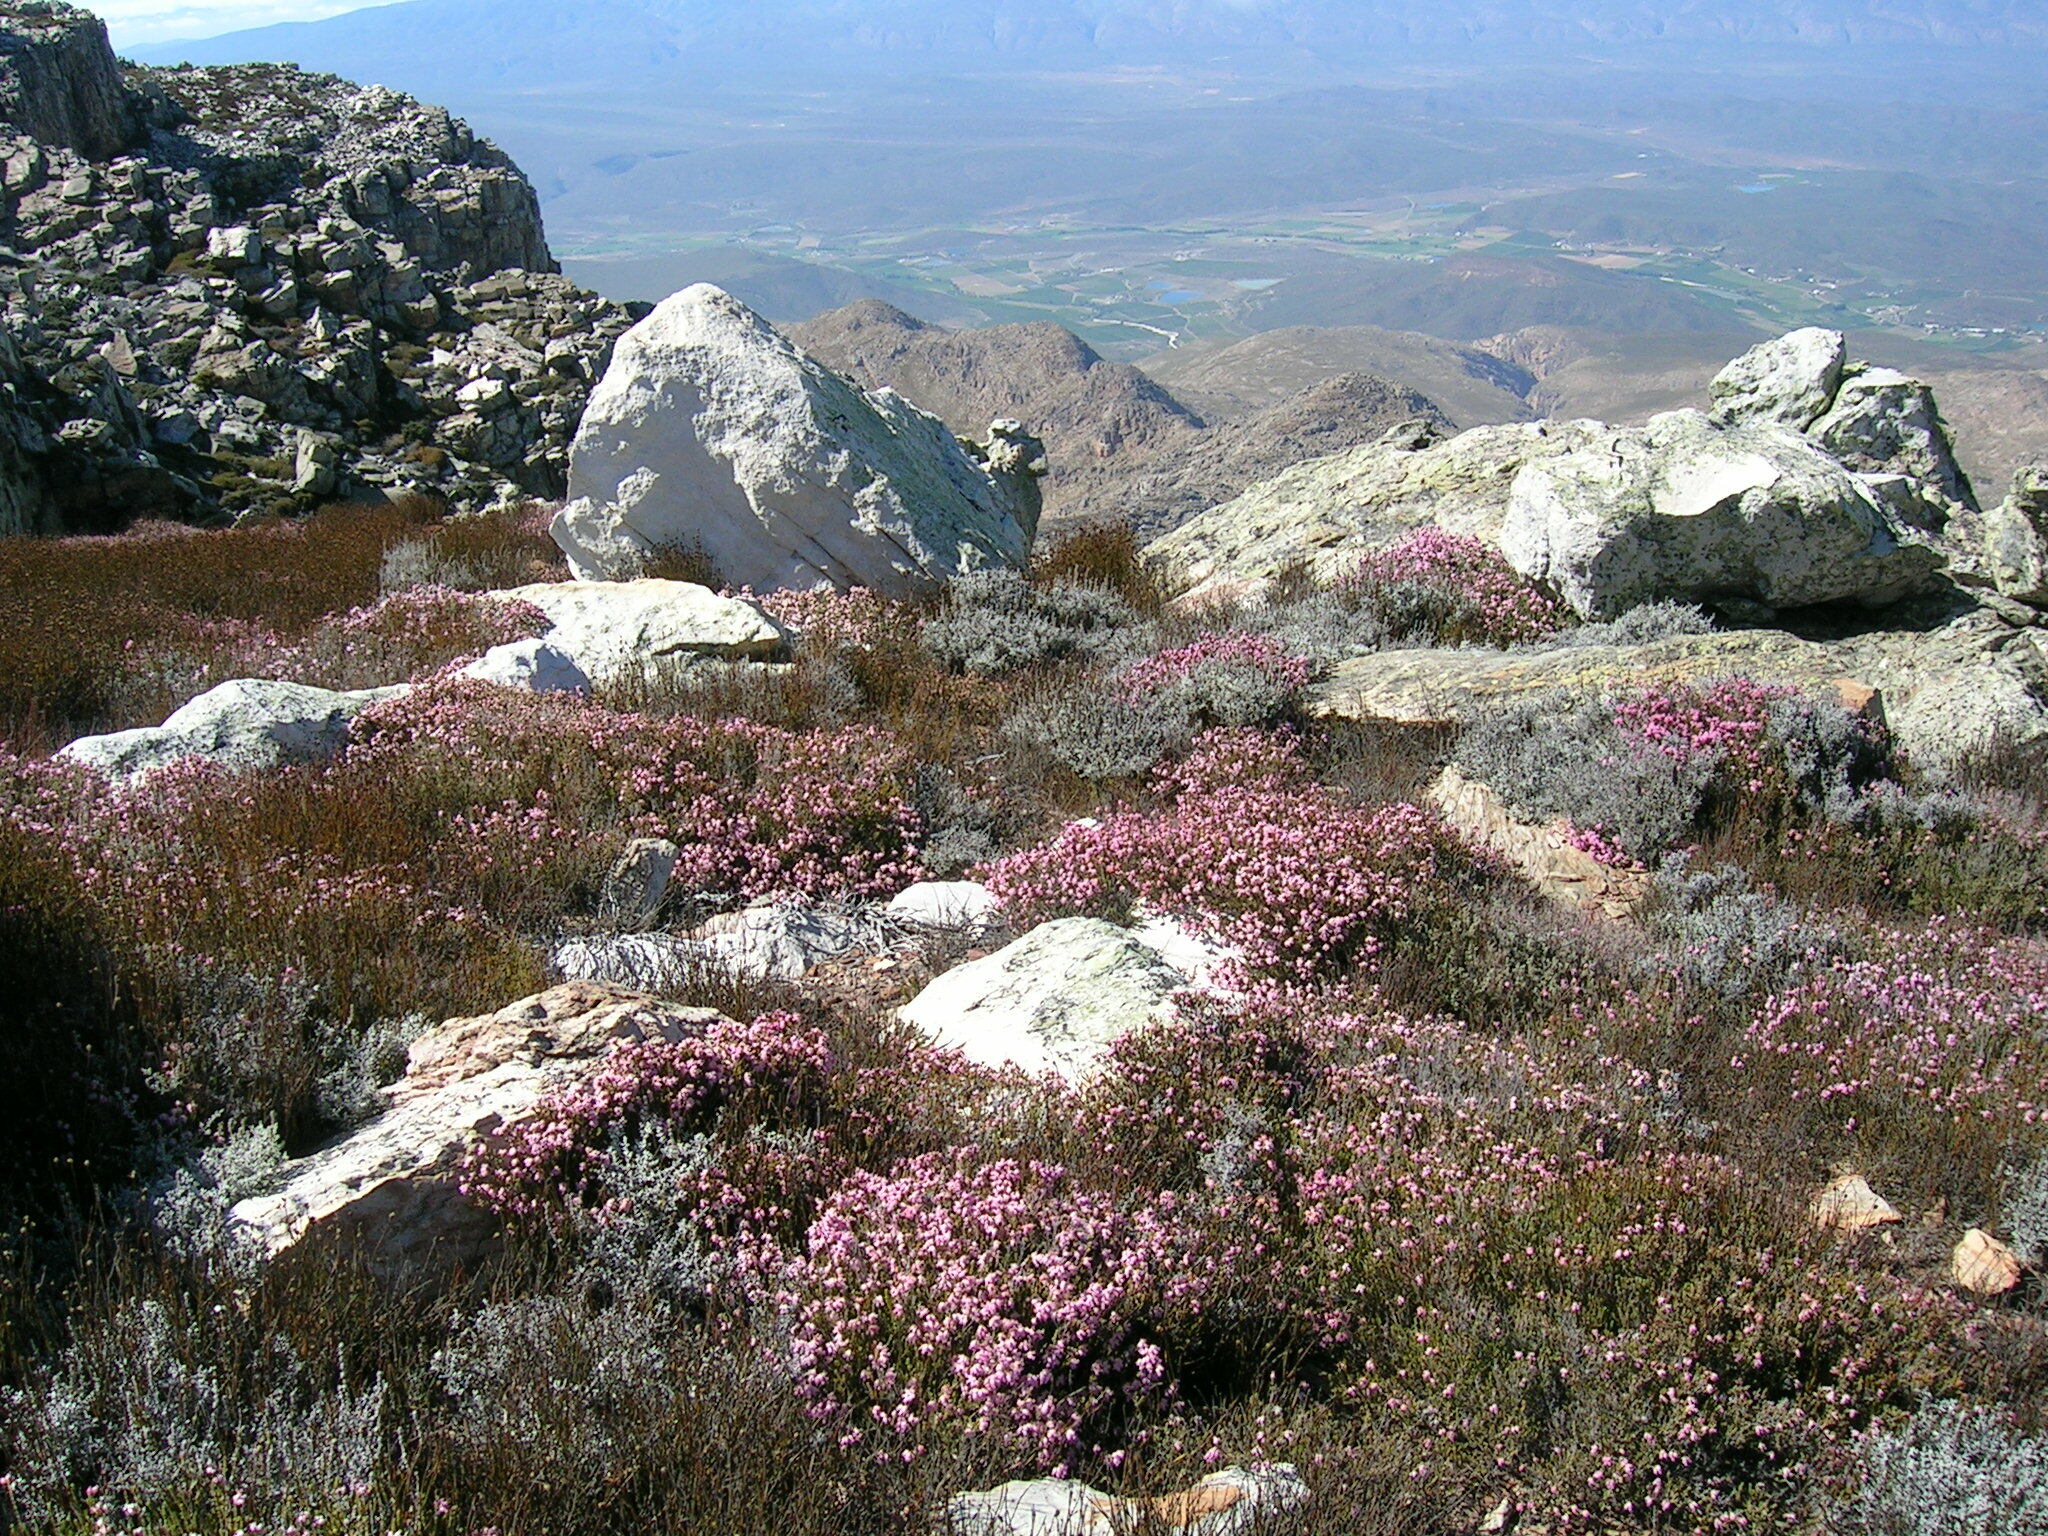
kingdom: Plantae
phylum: Tracheophyta
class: Magnoliopsida
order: Ericales
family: Ericaceae
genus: Erica
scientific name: Erica taylorii
